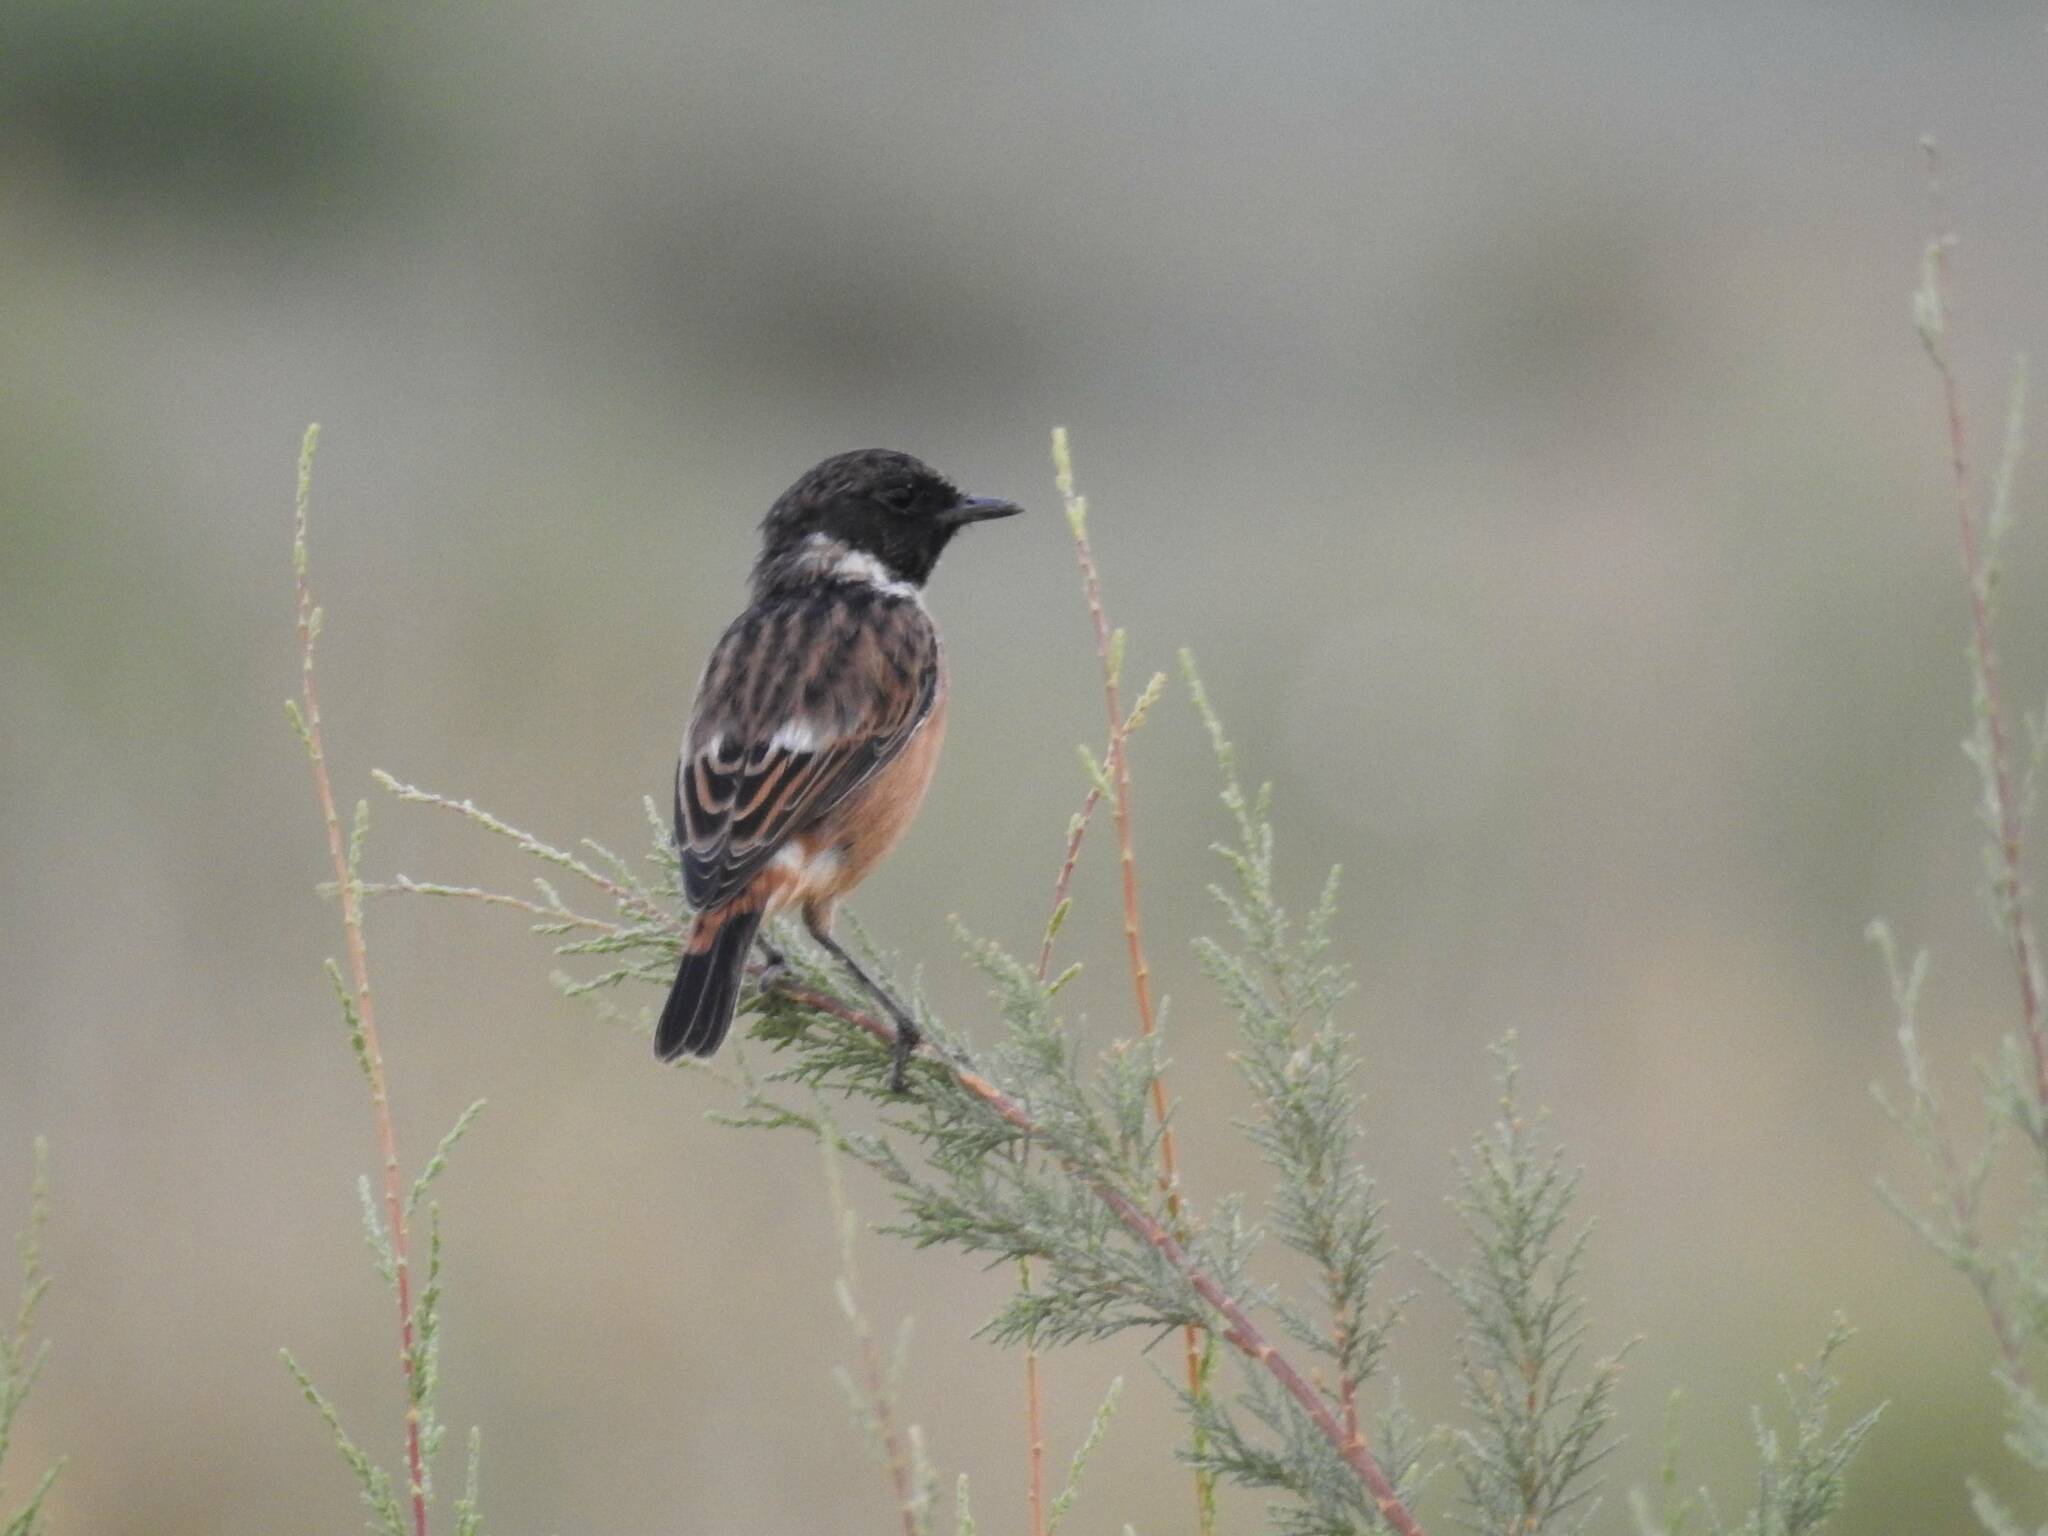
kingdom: Animalia
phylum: Chordata
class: Aves
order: Passeriformes
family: Muscicapidae
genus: Saxicola
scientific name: Saxicola rubicola
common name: European stonechat
